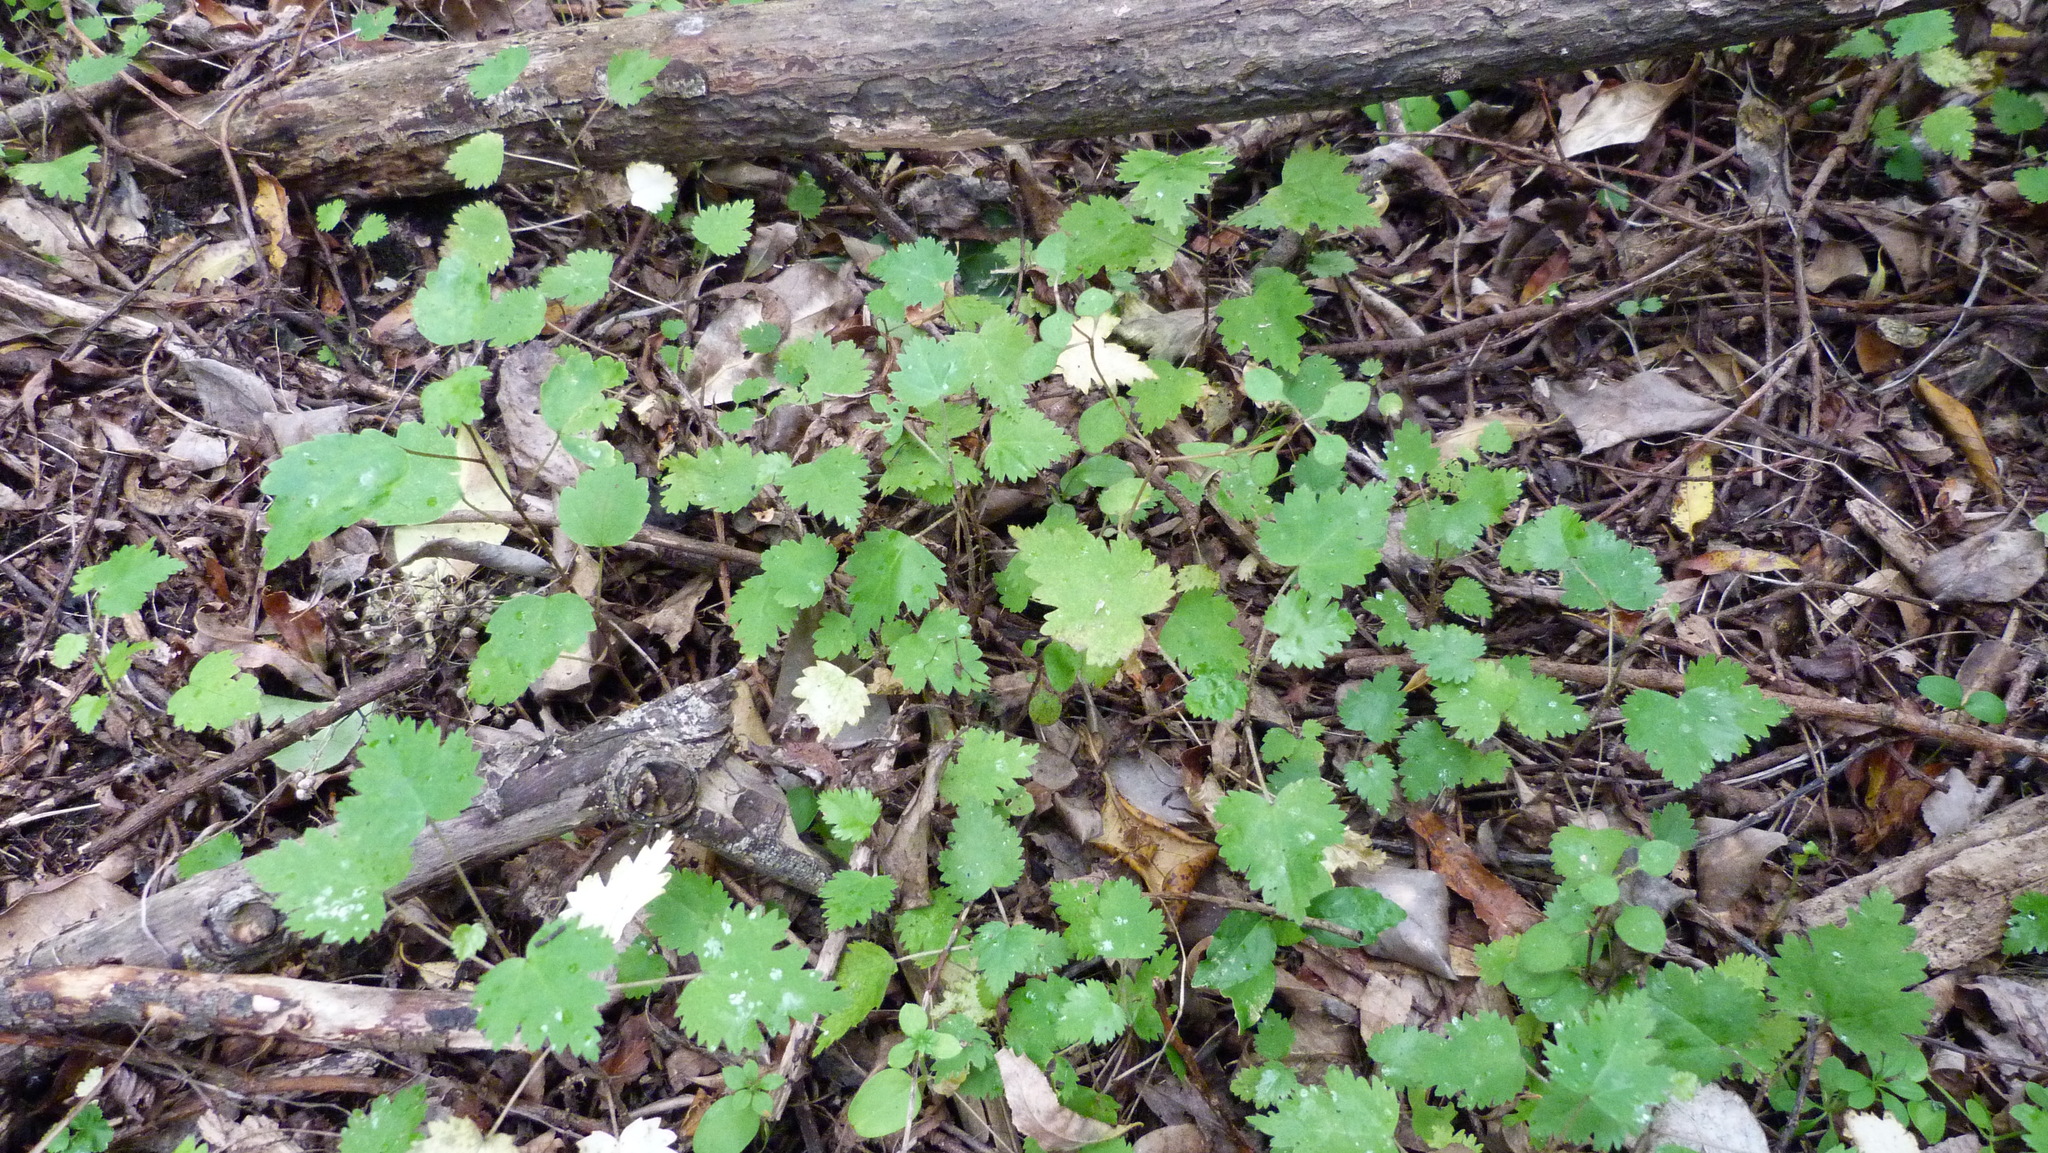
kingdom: Plantae
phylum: Tracheophyta
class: Magnoliopsida
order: Malvales
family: Malvaceae
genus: Plagianthus
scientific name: Plagianthus regius
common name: Manatu
